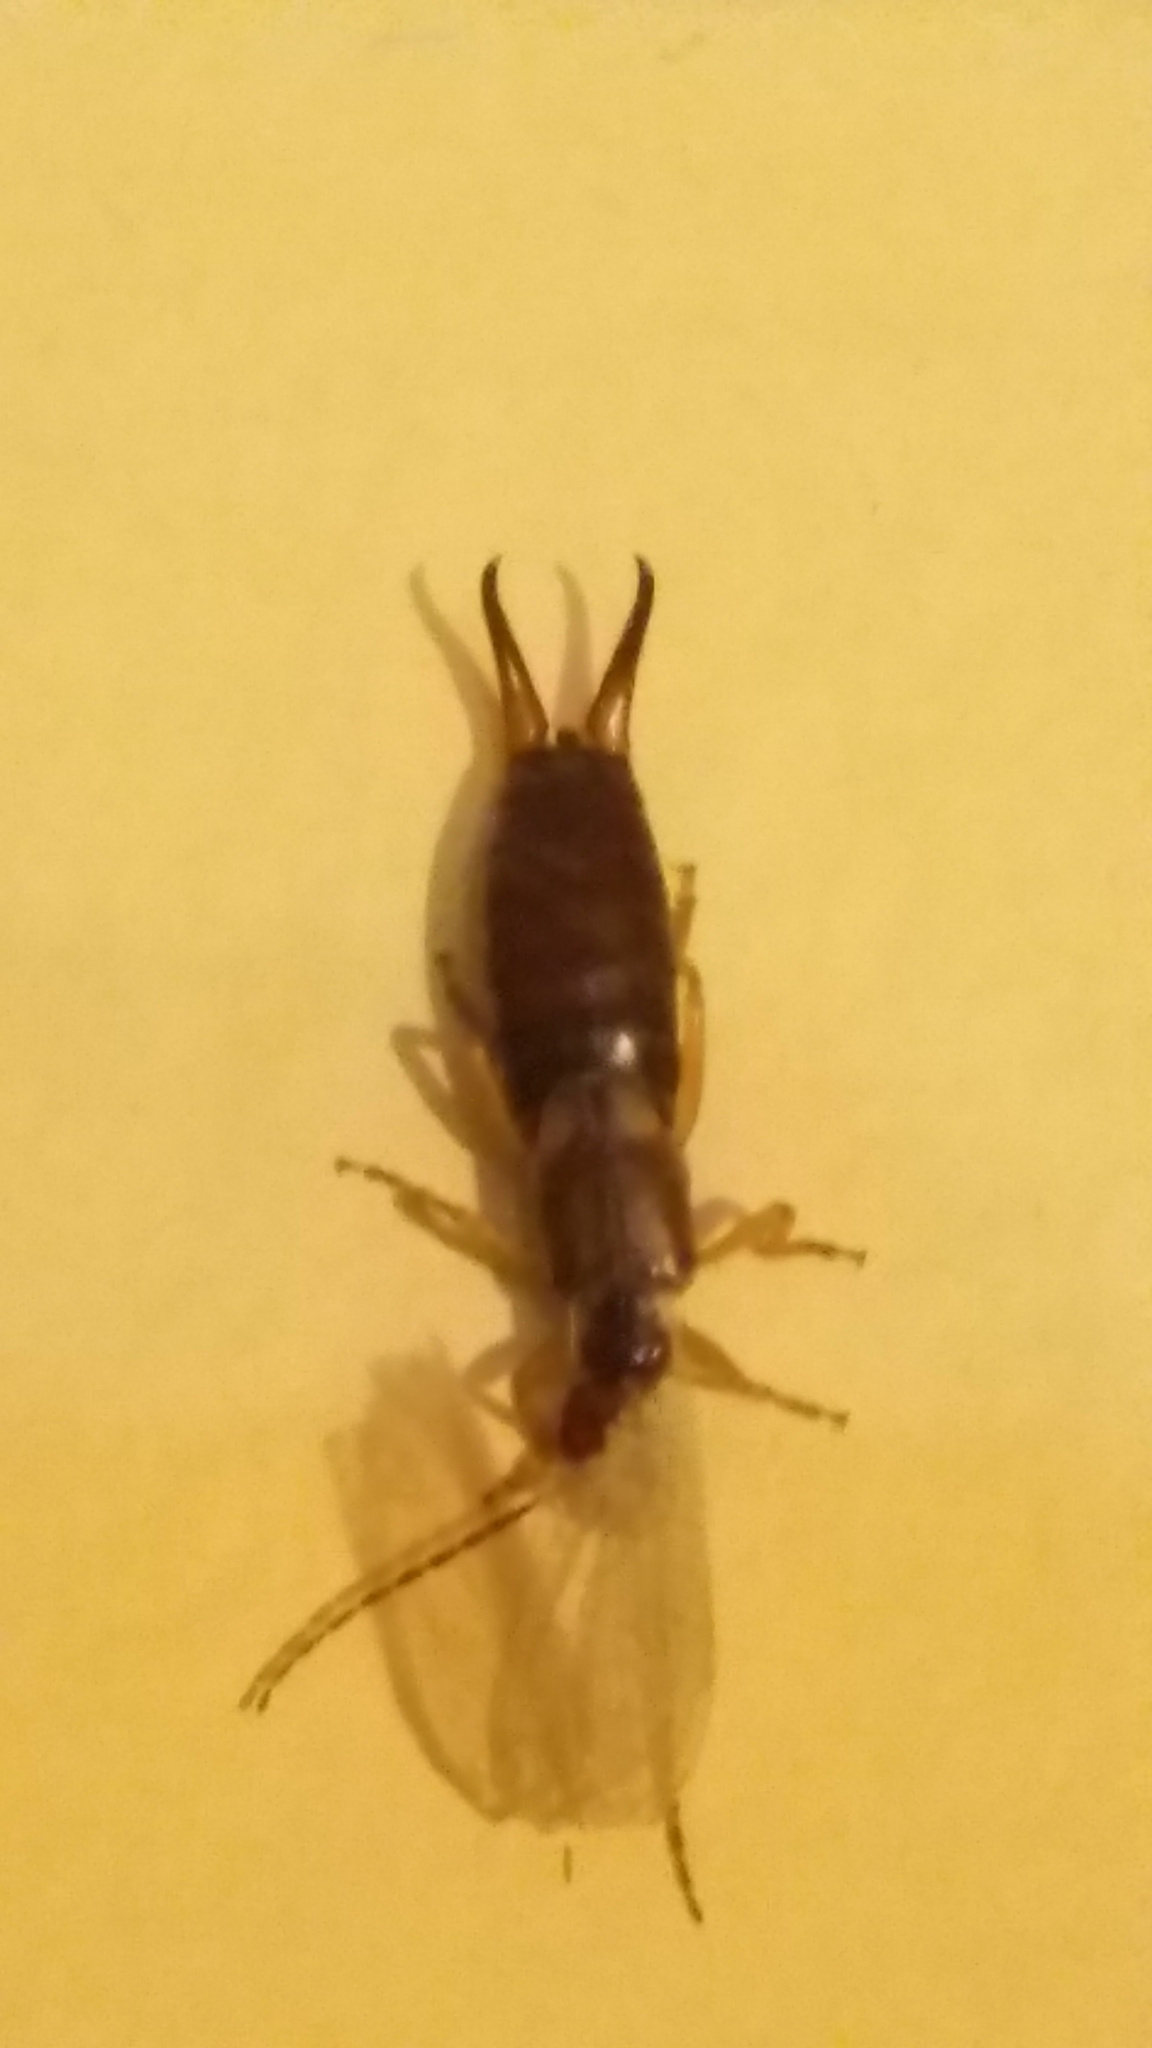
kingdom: Animalia
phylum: Arthropoda
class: Insecta
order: Dermaptera
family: Forficulidae
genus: Forficula
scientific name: Forficula
